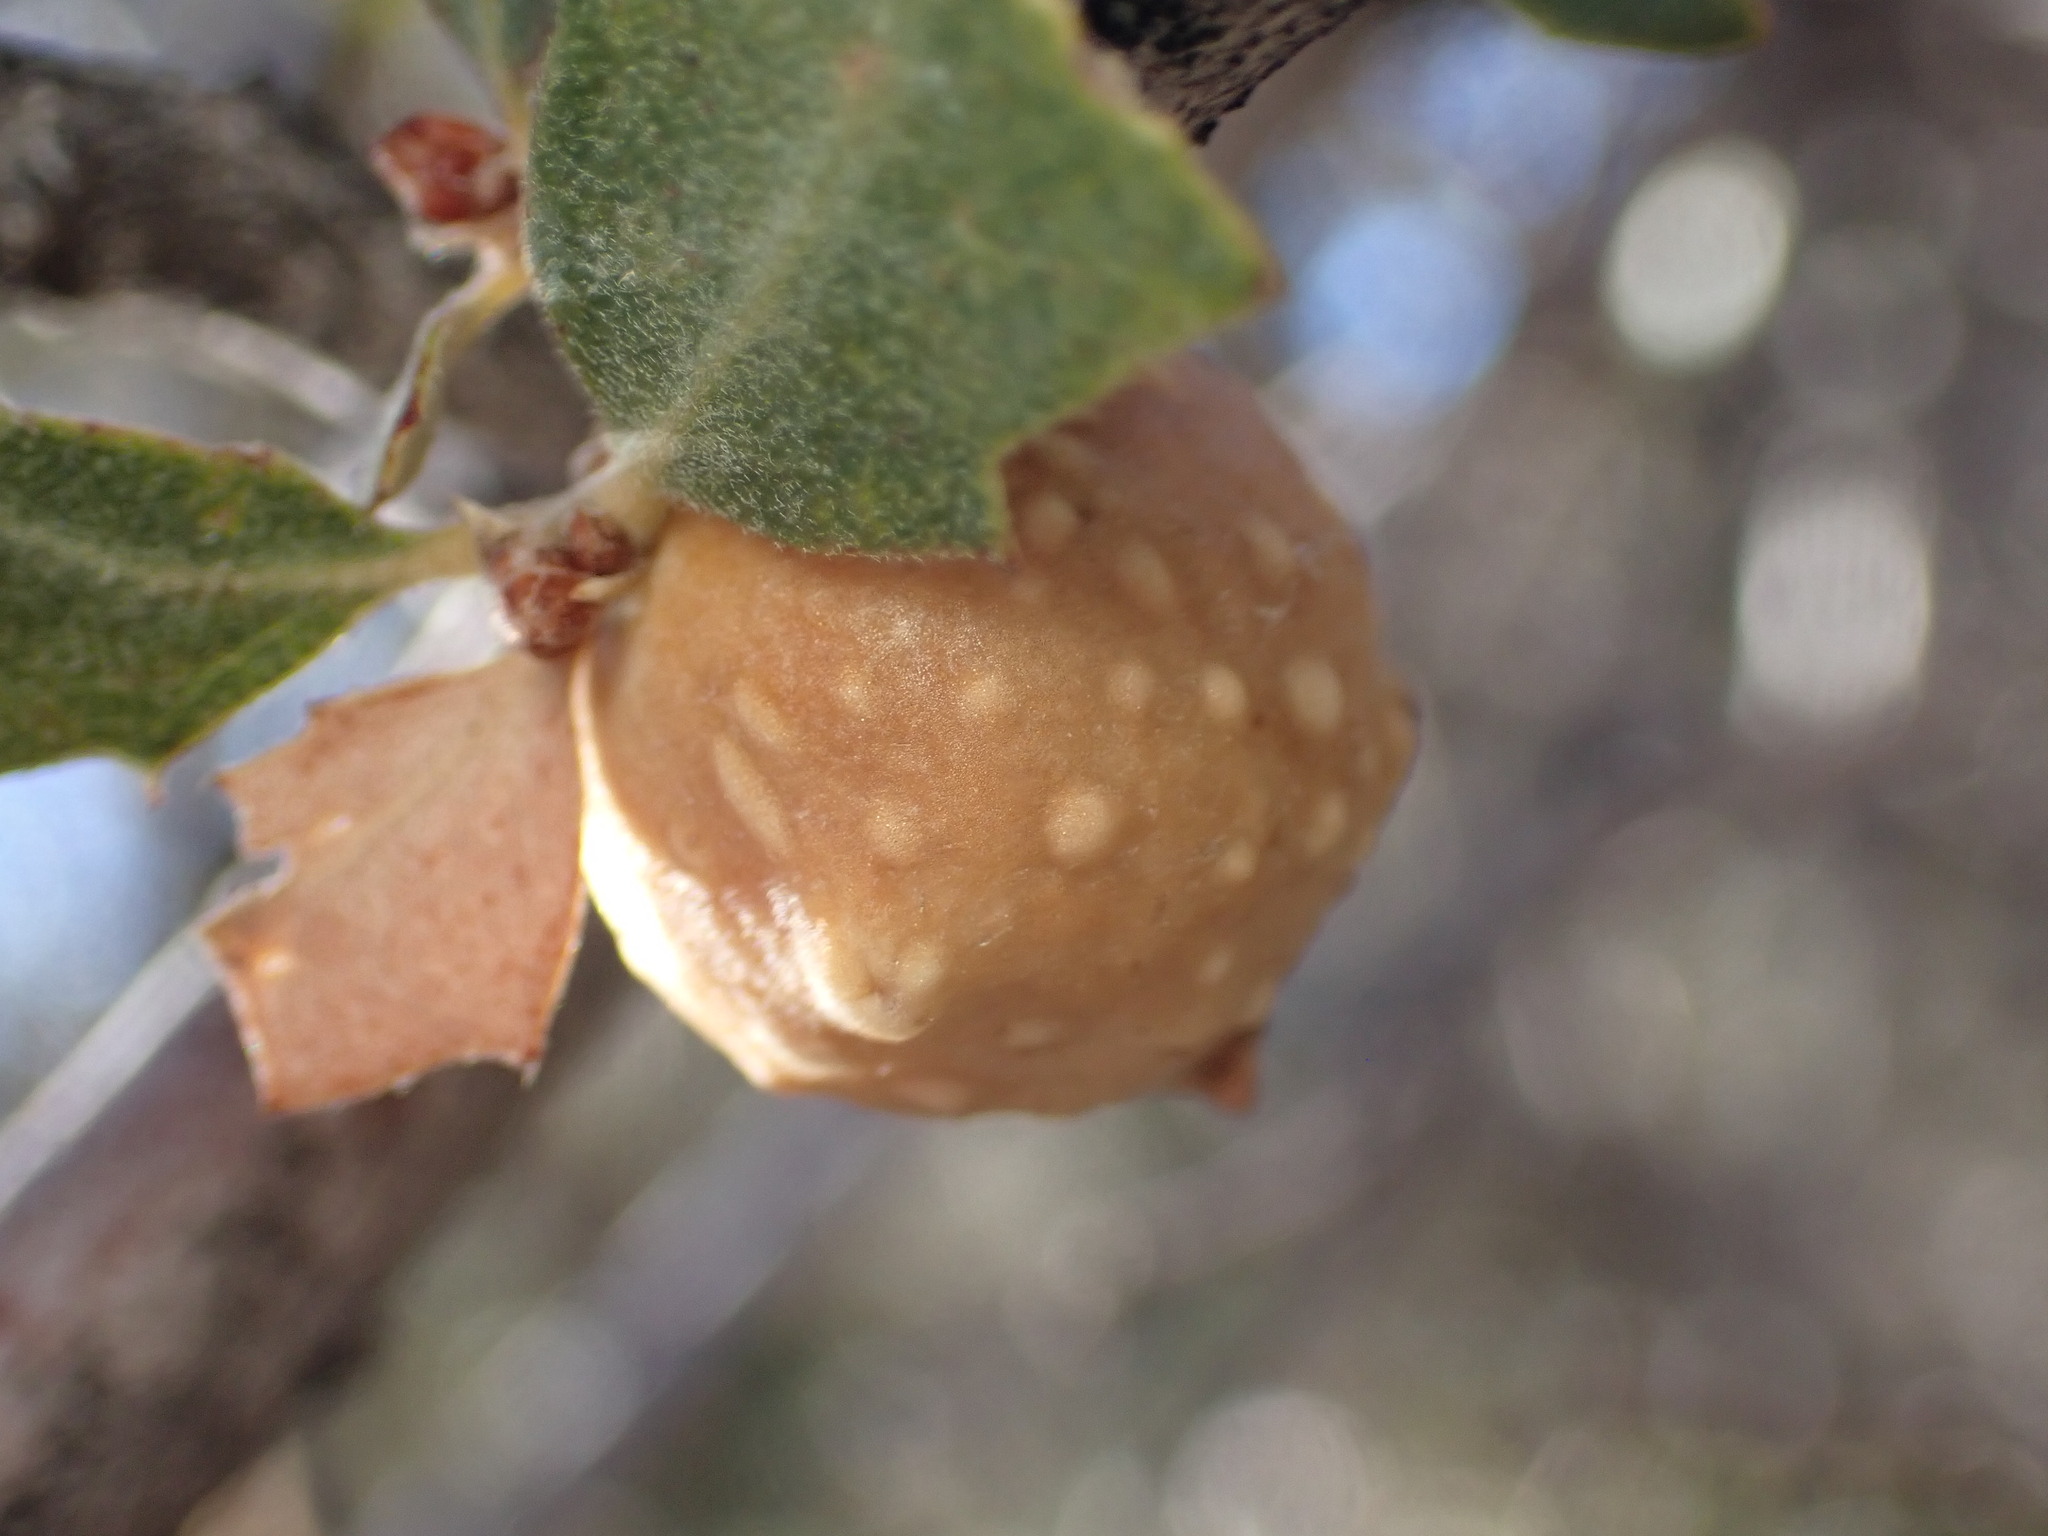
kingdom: Animalia
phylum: Arthropoda
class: Insecta
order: Hymenoptera
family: Cynipidae
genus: Burnettweldia
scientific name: Burnettweldia
